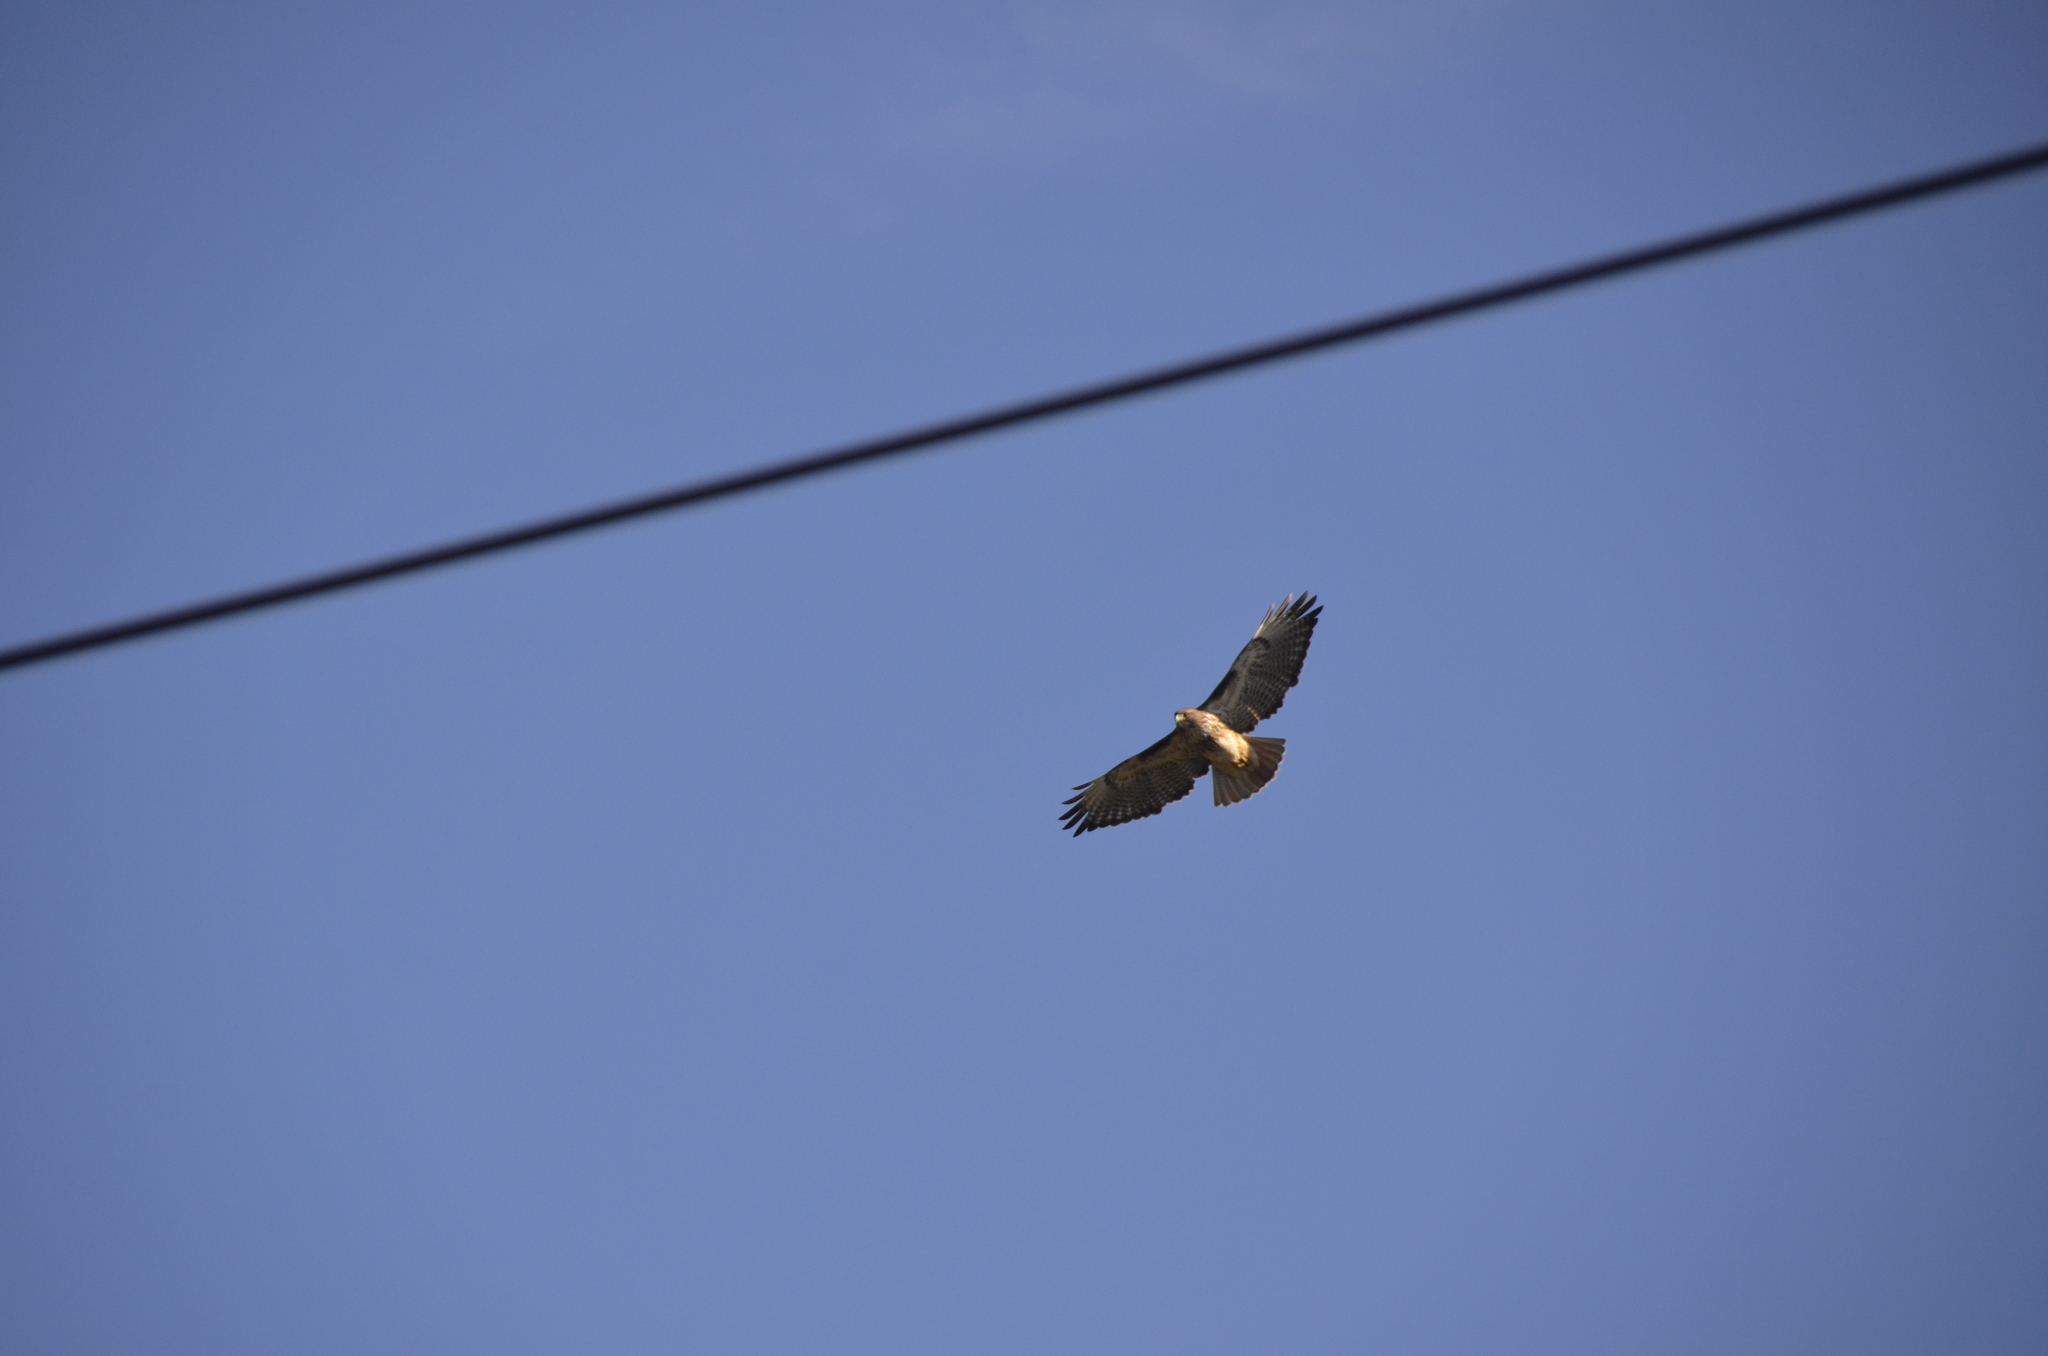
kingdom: Animalia
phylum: Chordata
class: Aves
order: Accipitriformes
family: Accipitridae
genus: Buteo
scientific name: Buteo jamaicensis
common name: Red-tailed hawk
